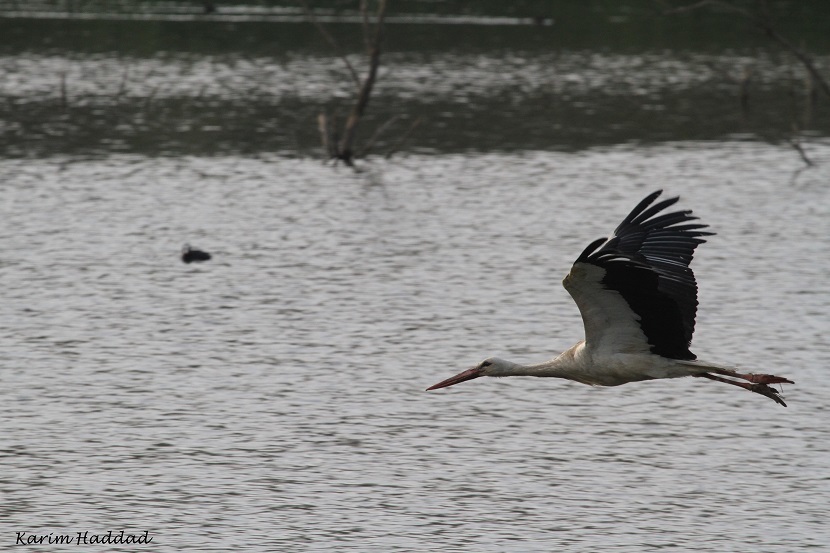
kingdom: Animalia
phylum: Chordata
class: Aves
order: Ciconiiformes
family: Ciconiidae
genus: Ciconia
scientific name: Ciconia ciconia
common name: White stork
